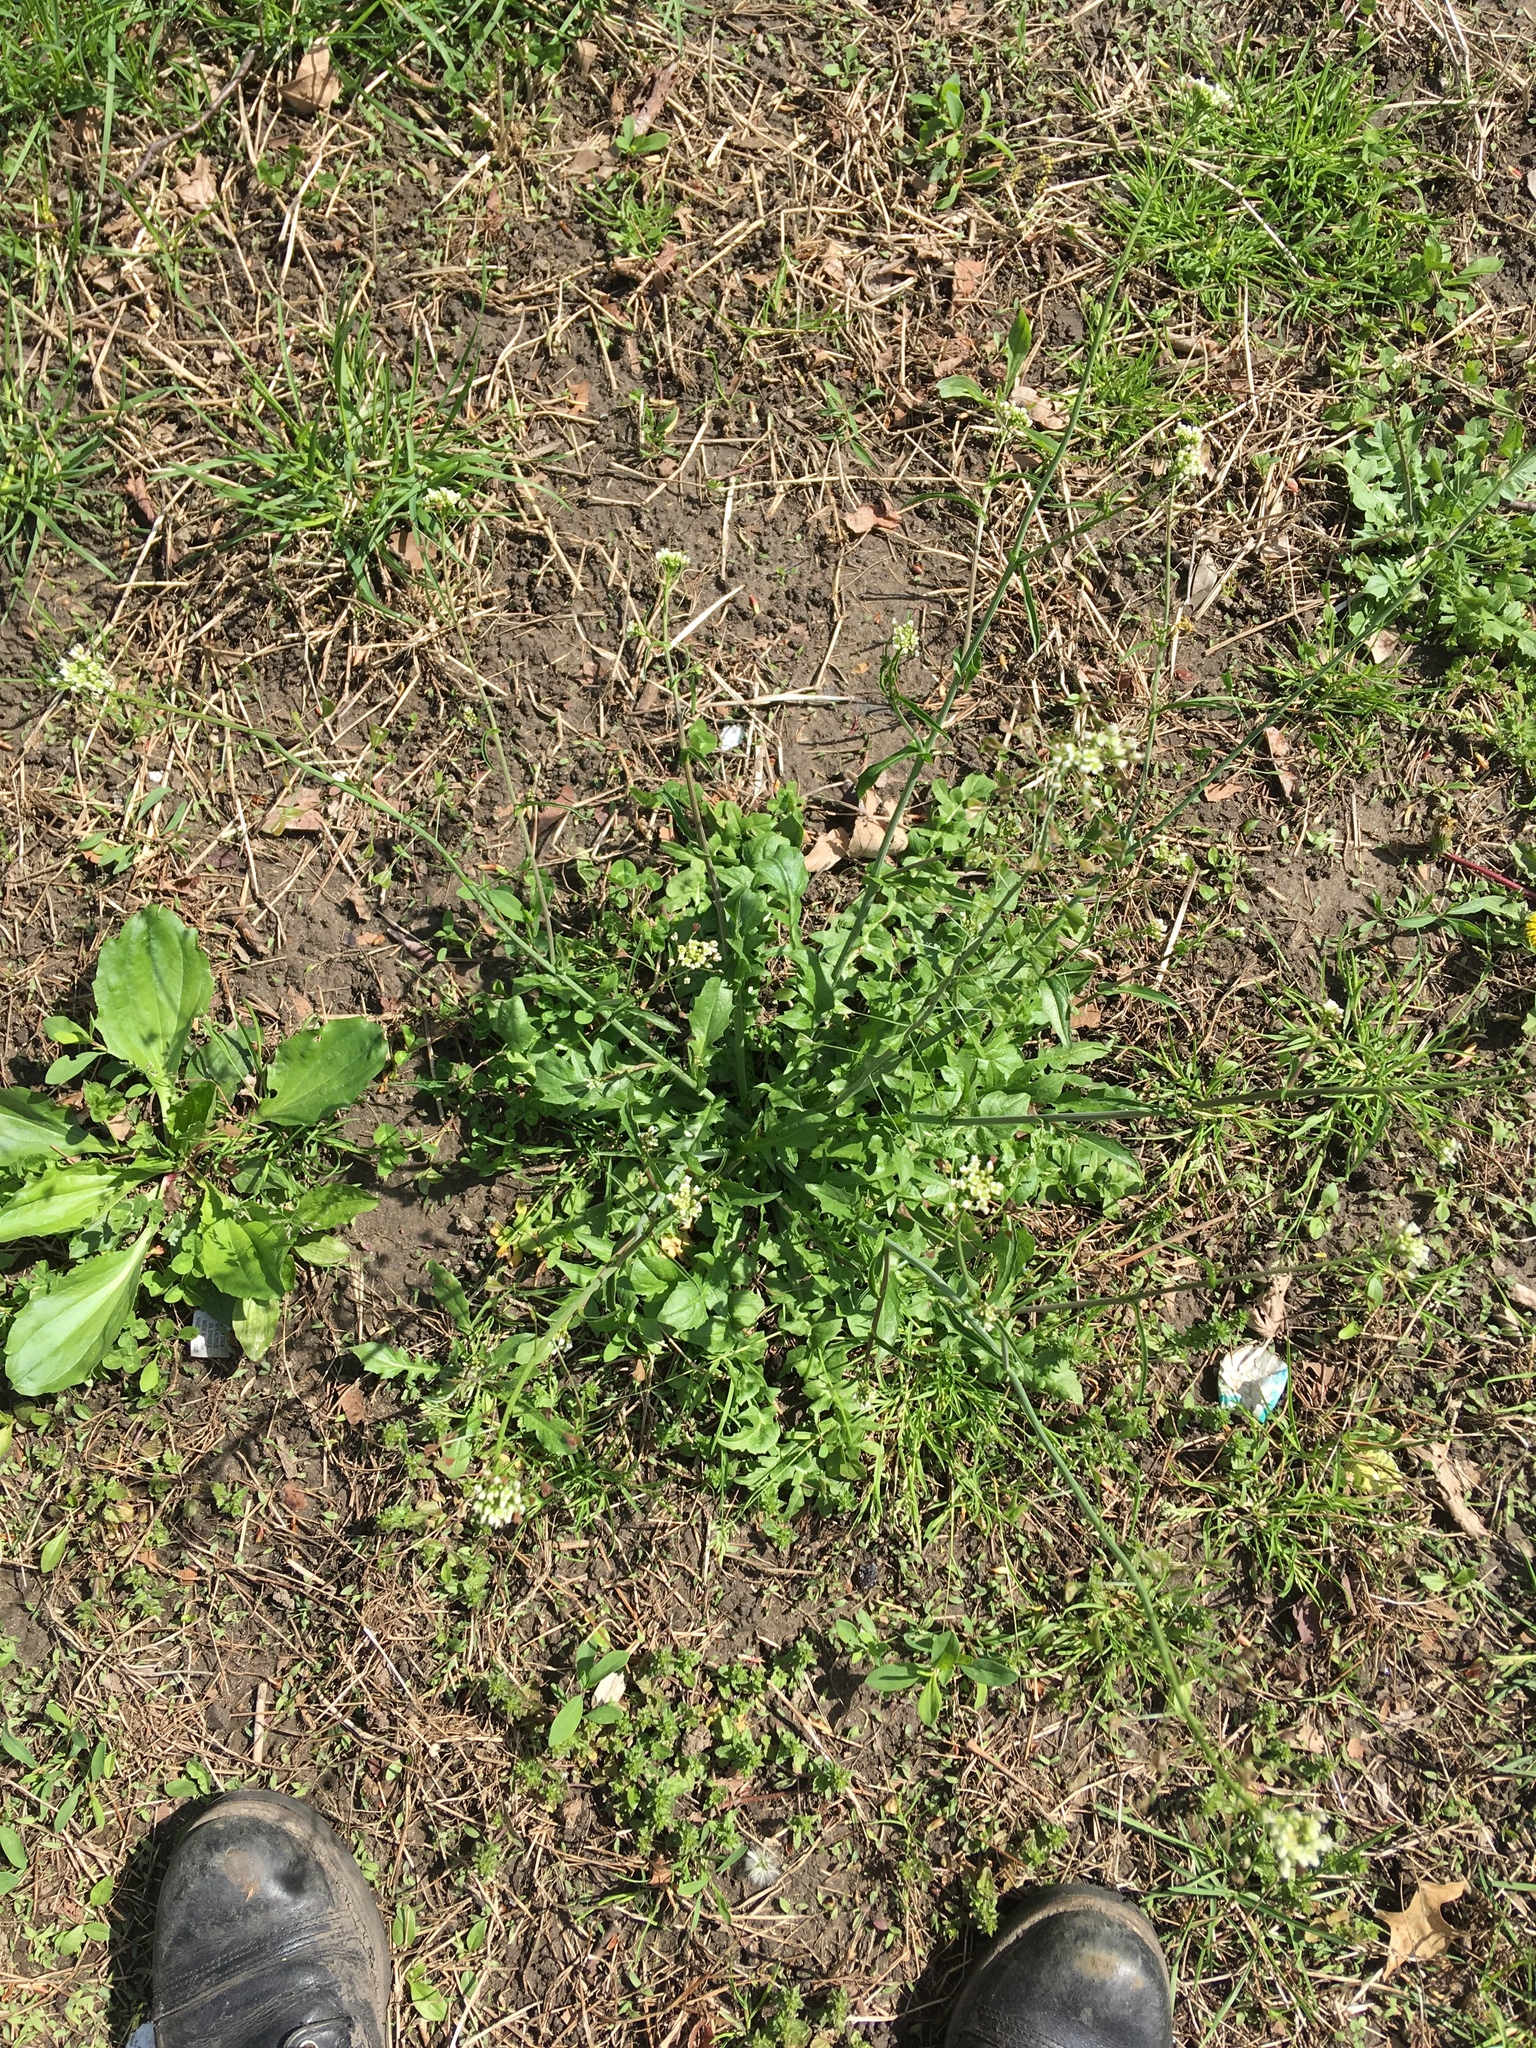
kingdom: Plantae
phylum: Tracheophyta
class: Magnoliopsida
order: Brassicales
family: Brassicaceae
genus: Capsella
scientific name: Capsella bursa-pastoris
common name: Shepherd's purse
